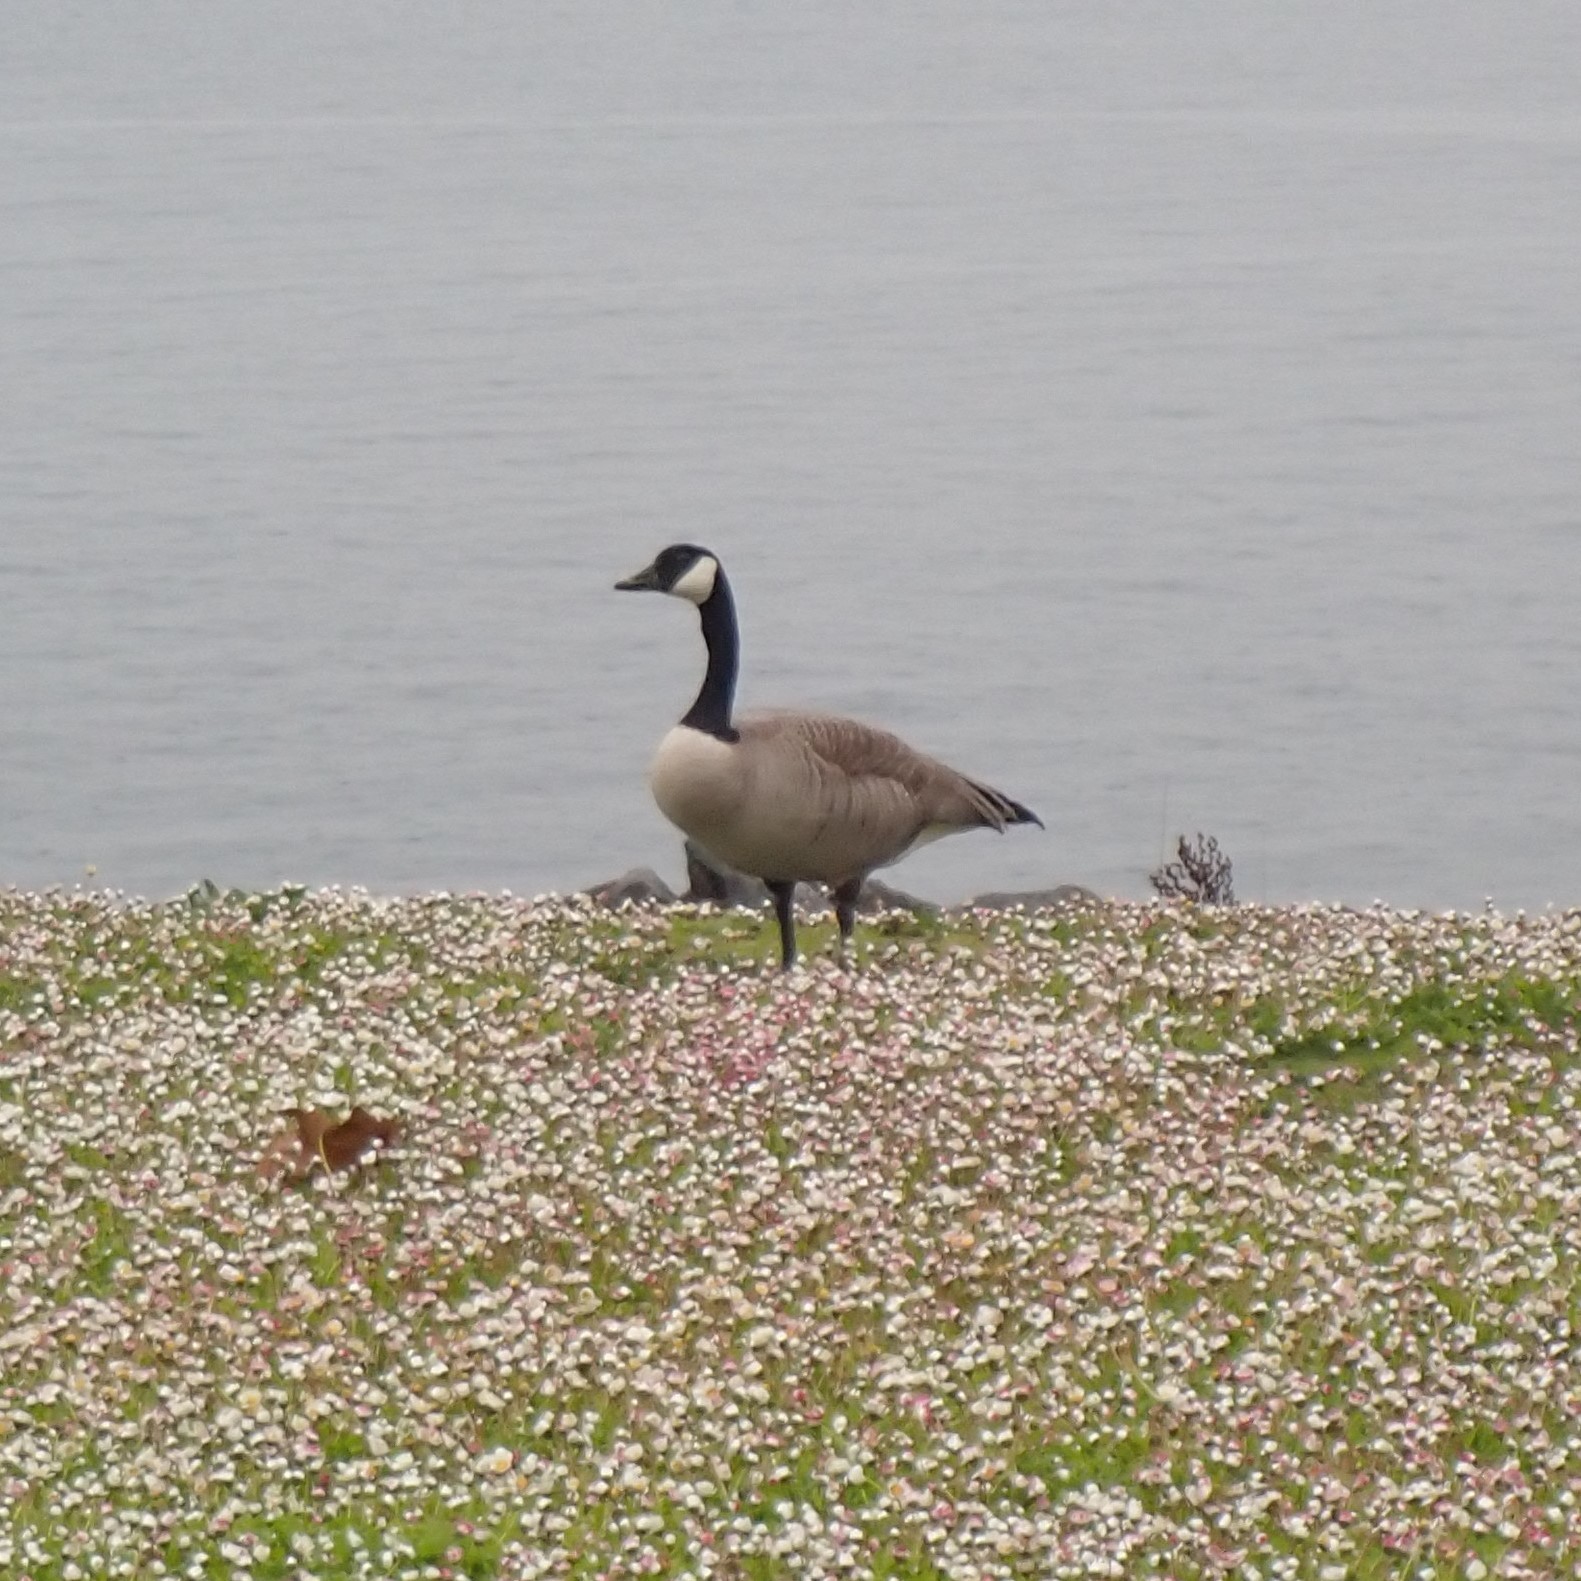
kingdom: Animalia
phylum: Chordata
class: Aves
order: Anseriformes
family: Anatidae
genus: Branta
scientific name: Branta canadensis
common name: Canada goose
